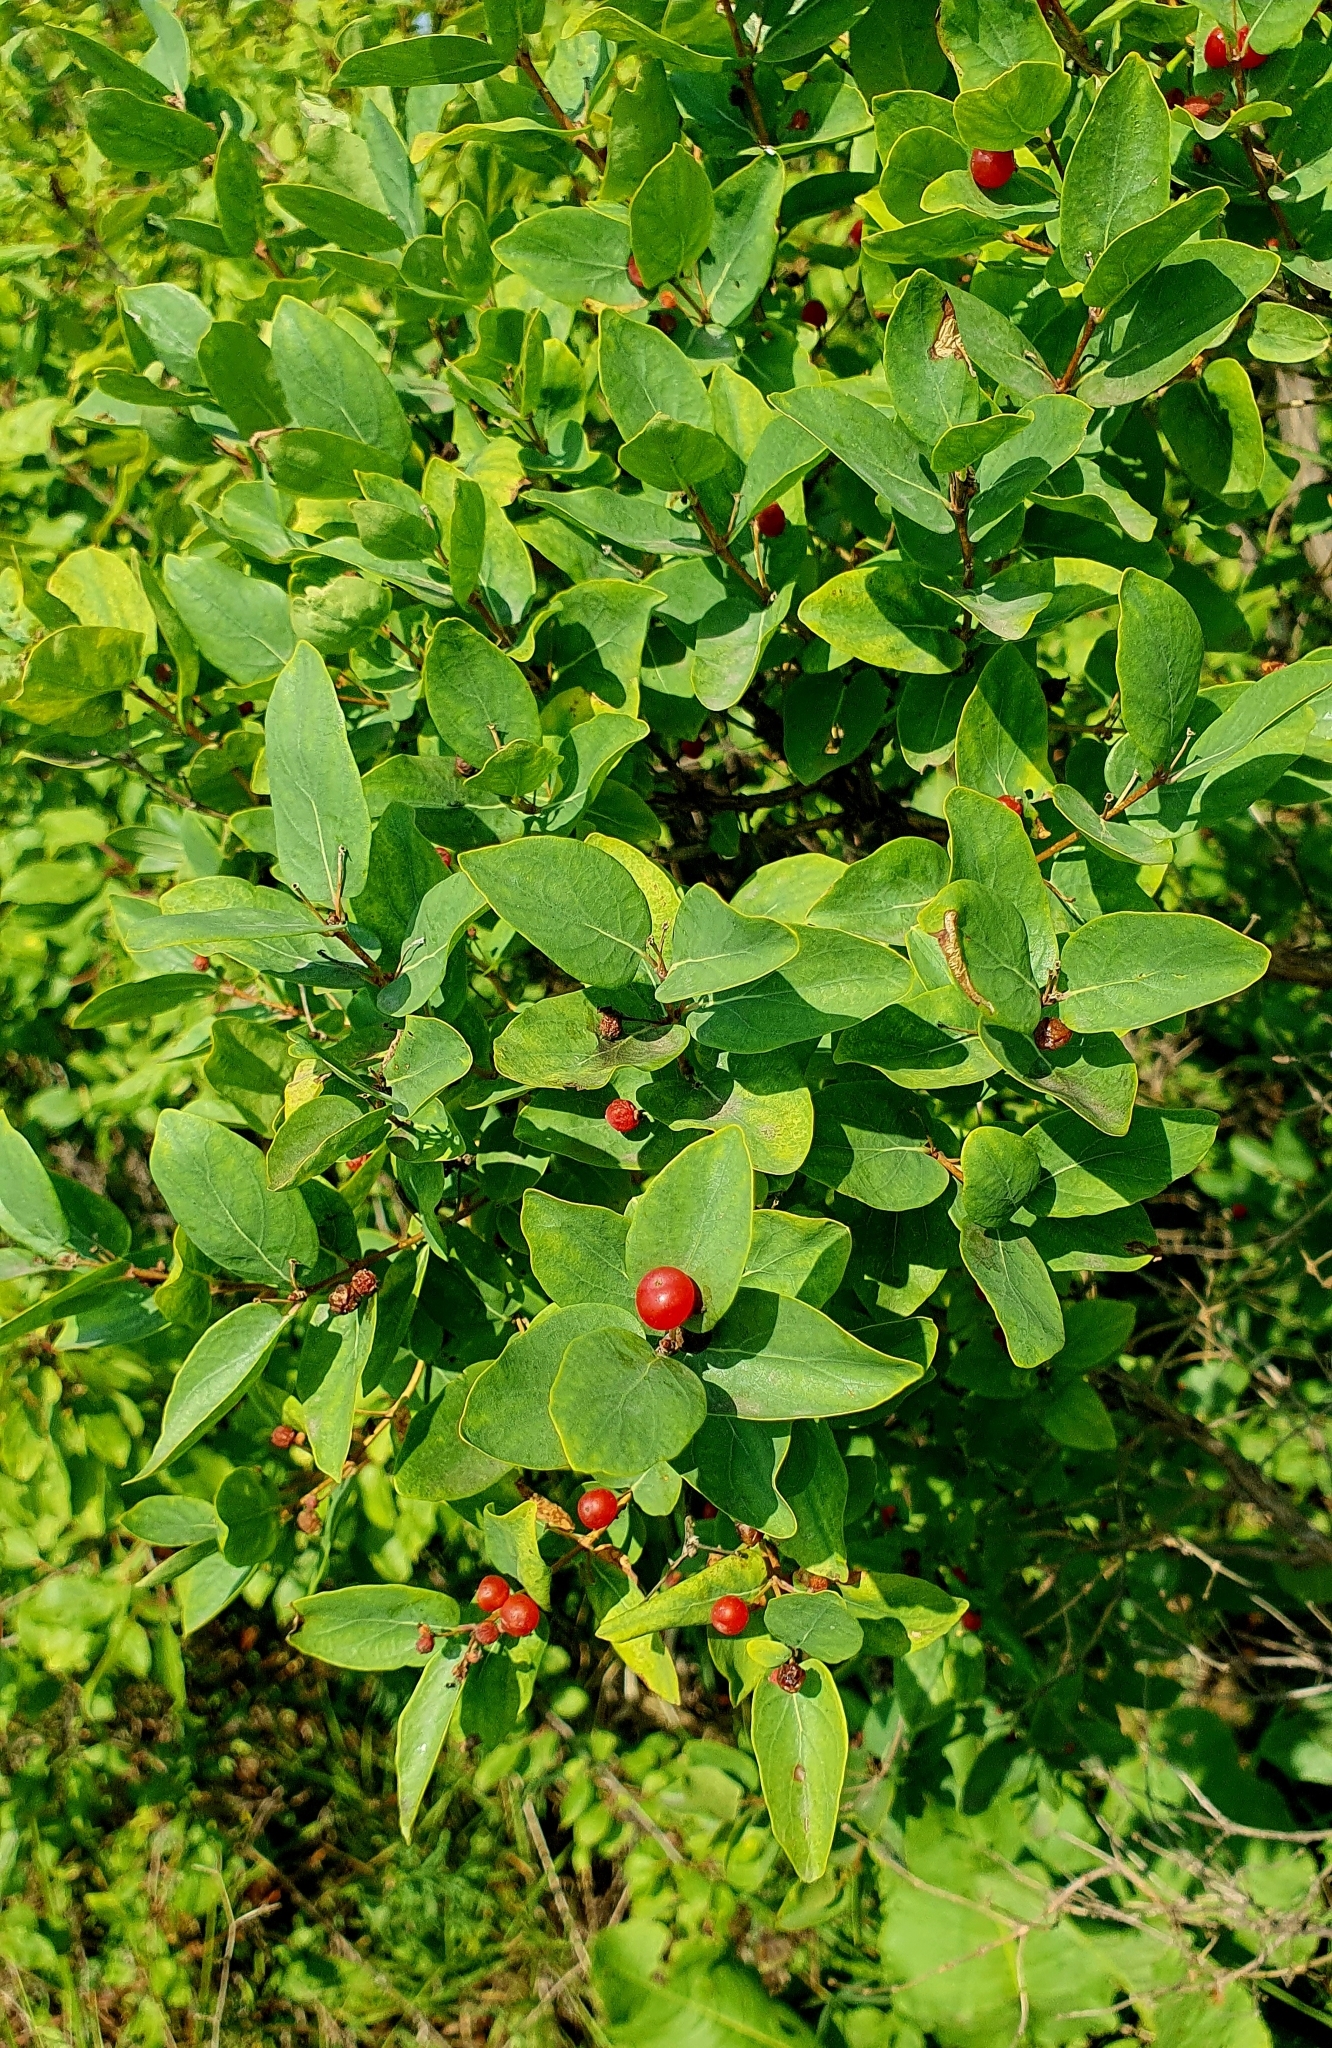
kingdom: Plantae
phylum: Tracheophyta
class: Magnoliopsida
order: Dipsacales
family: Caprifoliaceae
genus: Lonicera
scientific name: Lonicera tatarica
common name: Tatarian honeysuckle
